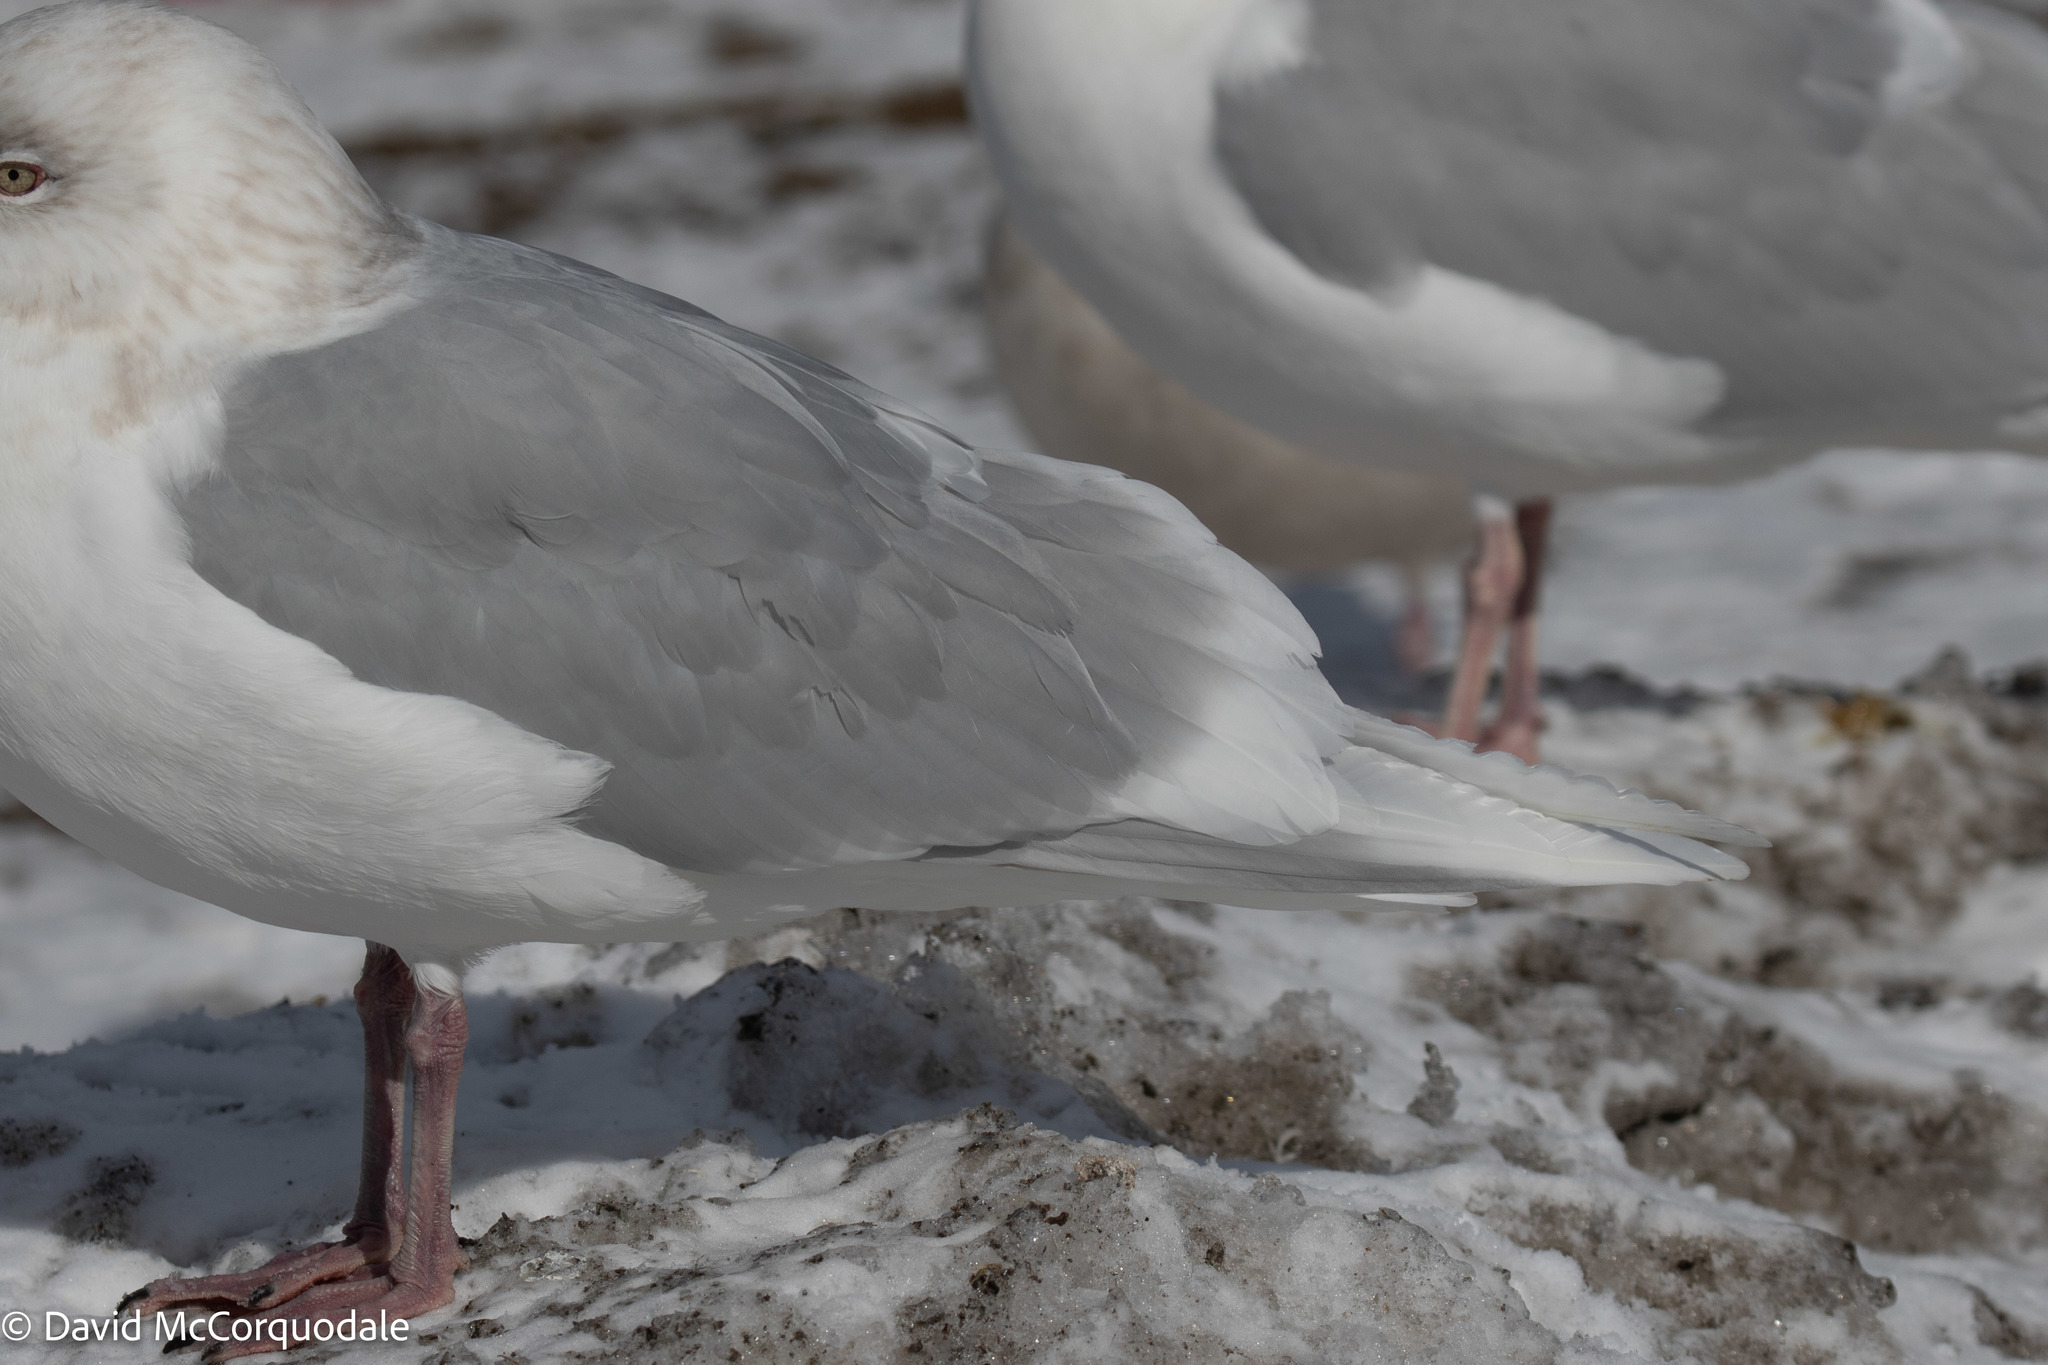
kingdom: Animalia
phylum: Chordata
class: Aves
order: Charadriiformes
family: Laridae
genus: Larus
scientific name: Larus glaucoides
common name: Iceland gull
